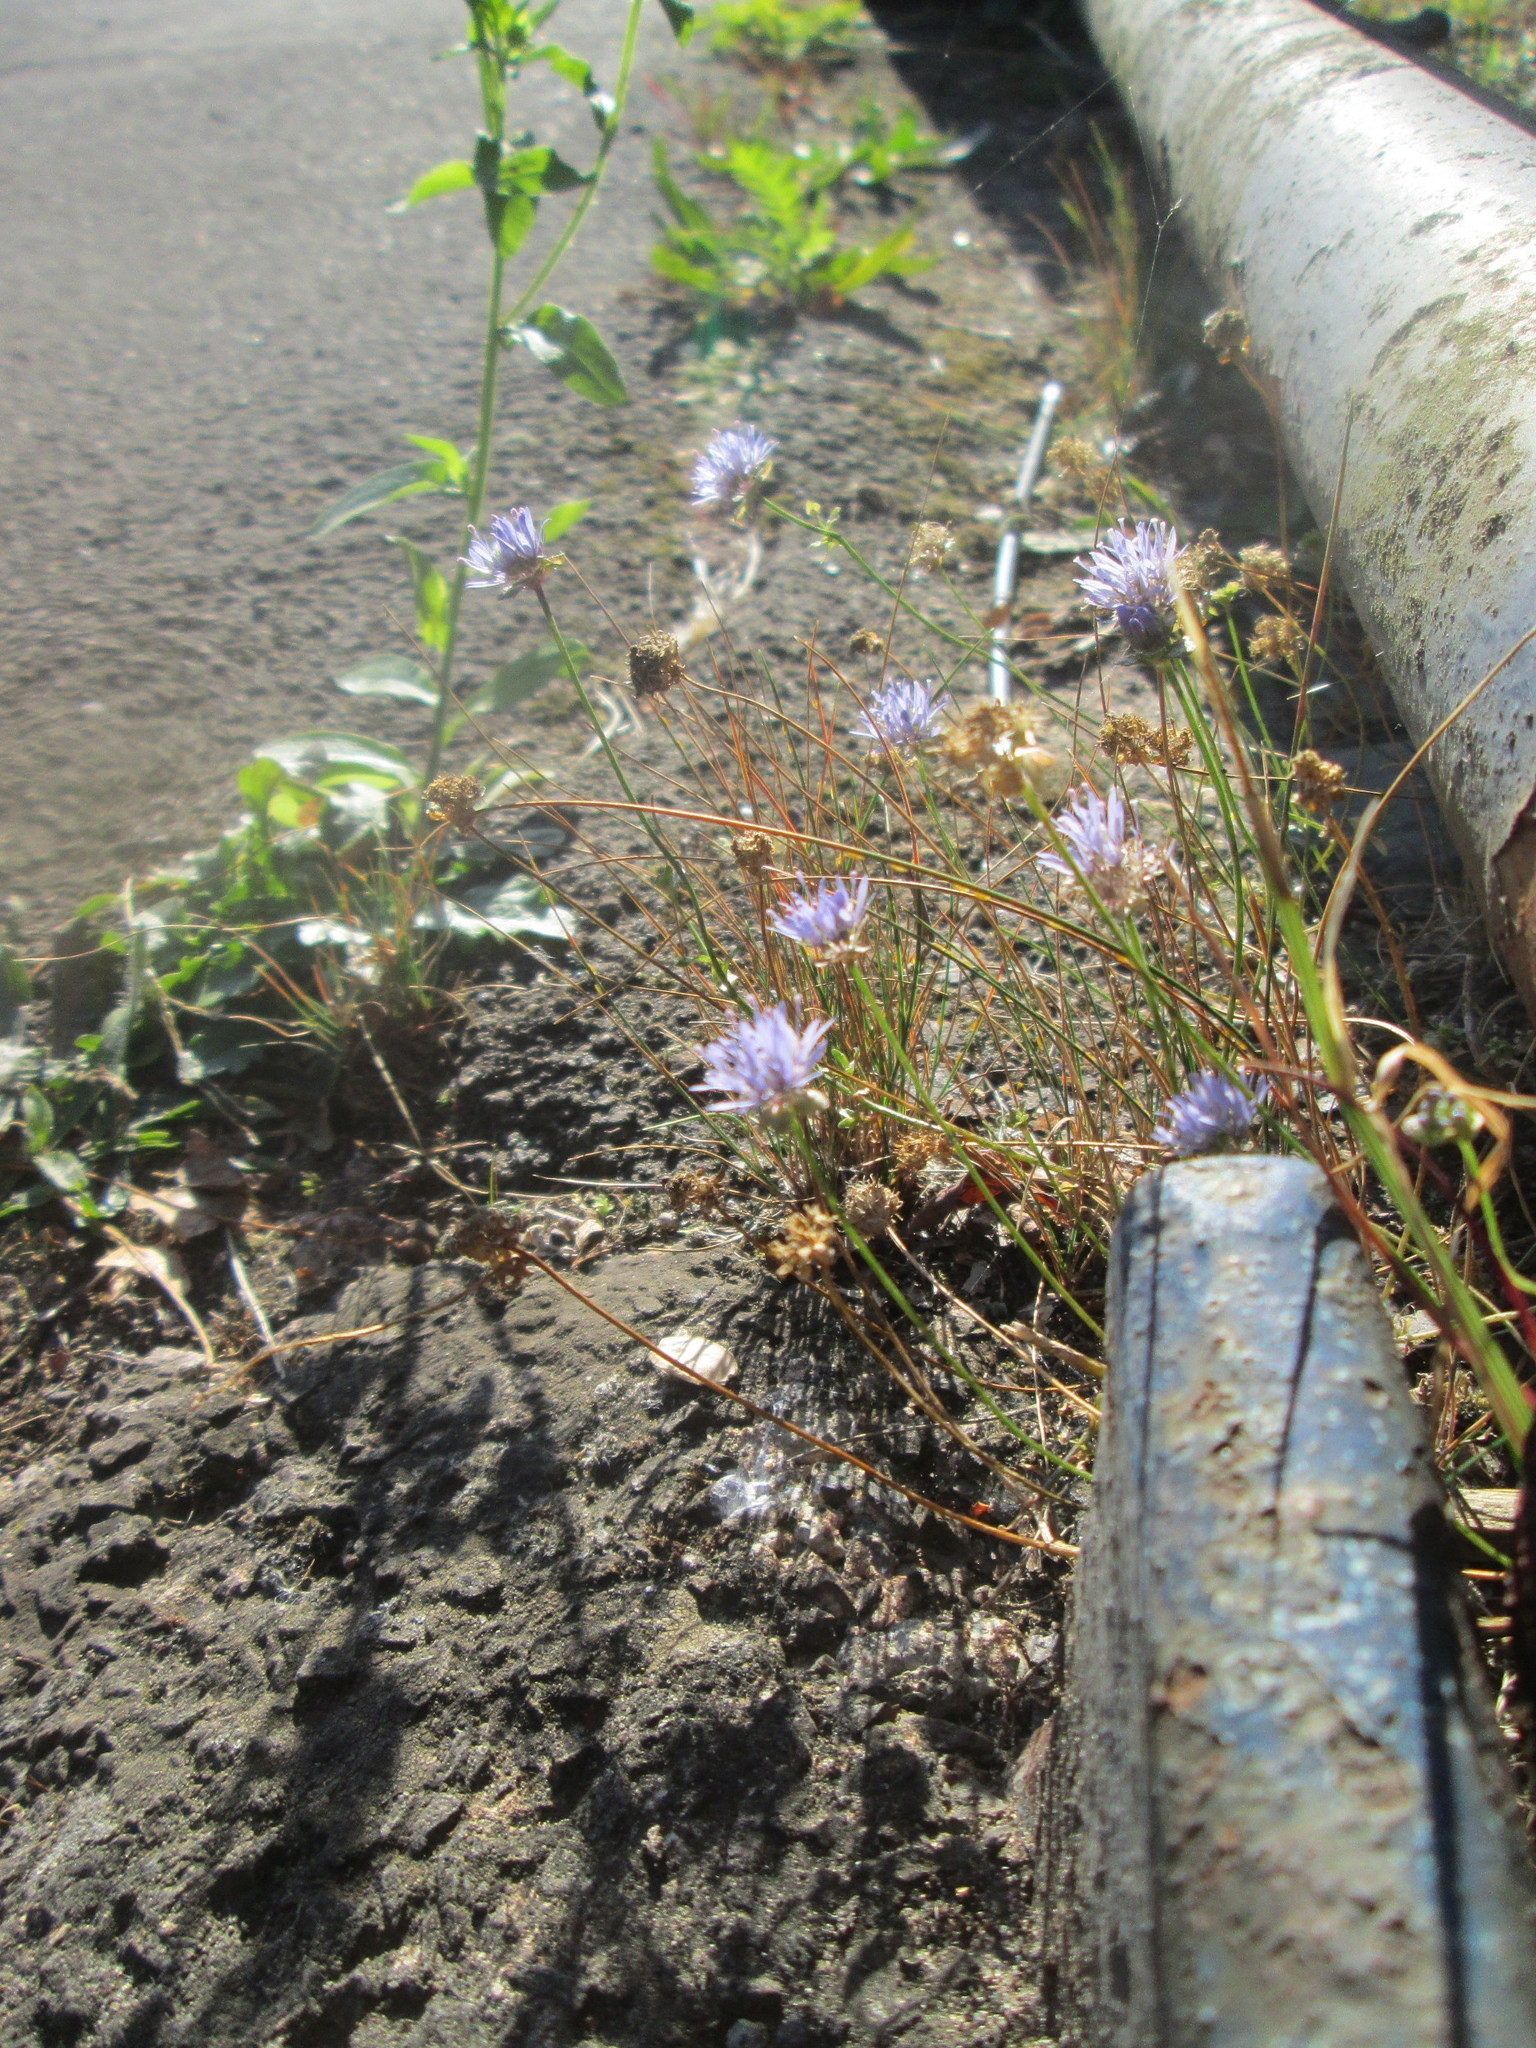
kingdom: Plantae
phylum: Tracheophyta
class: Magnoliopsida
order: Asterales
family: Campanulaceae
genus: Jasione
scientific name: Jasione montana
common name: Sheep's-bit
